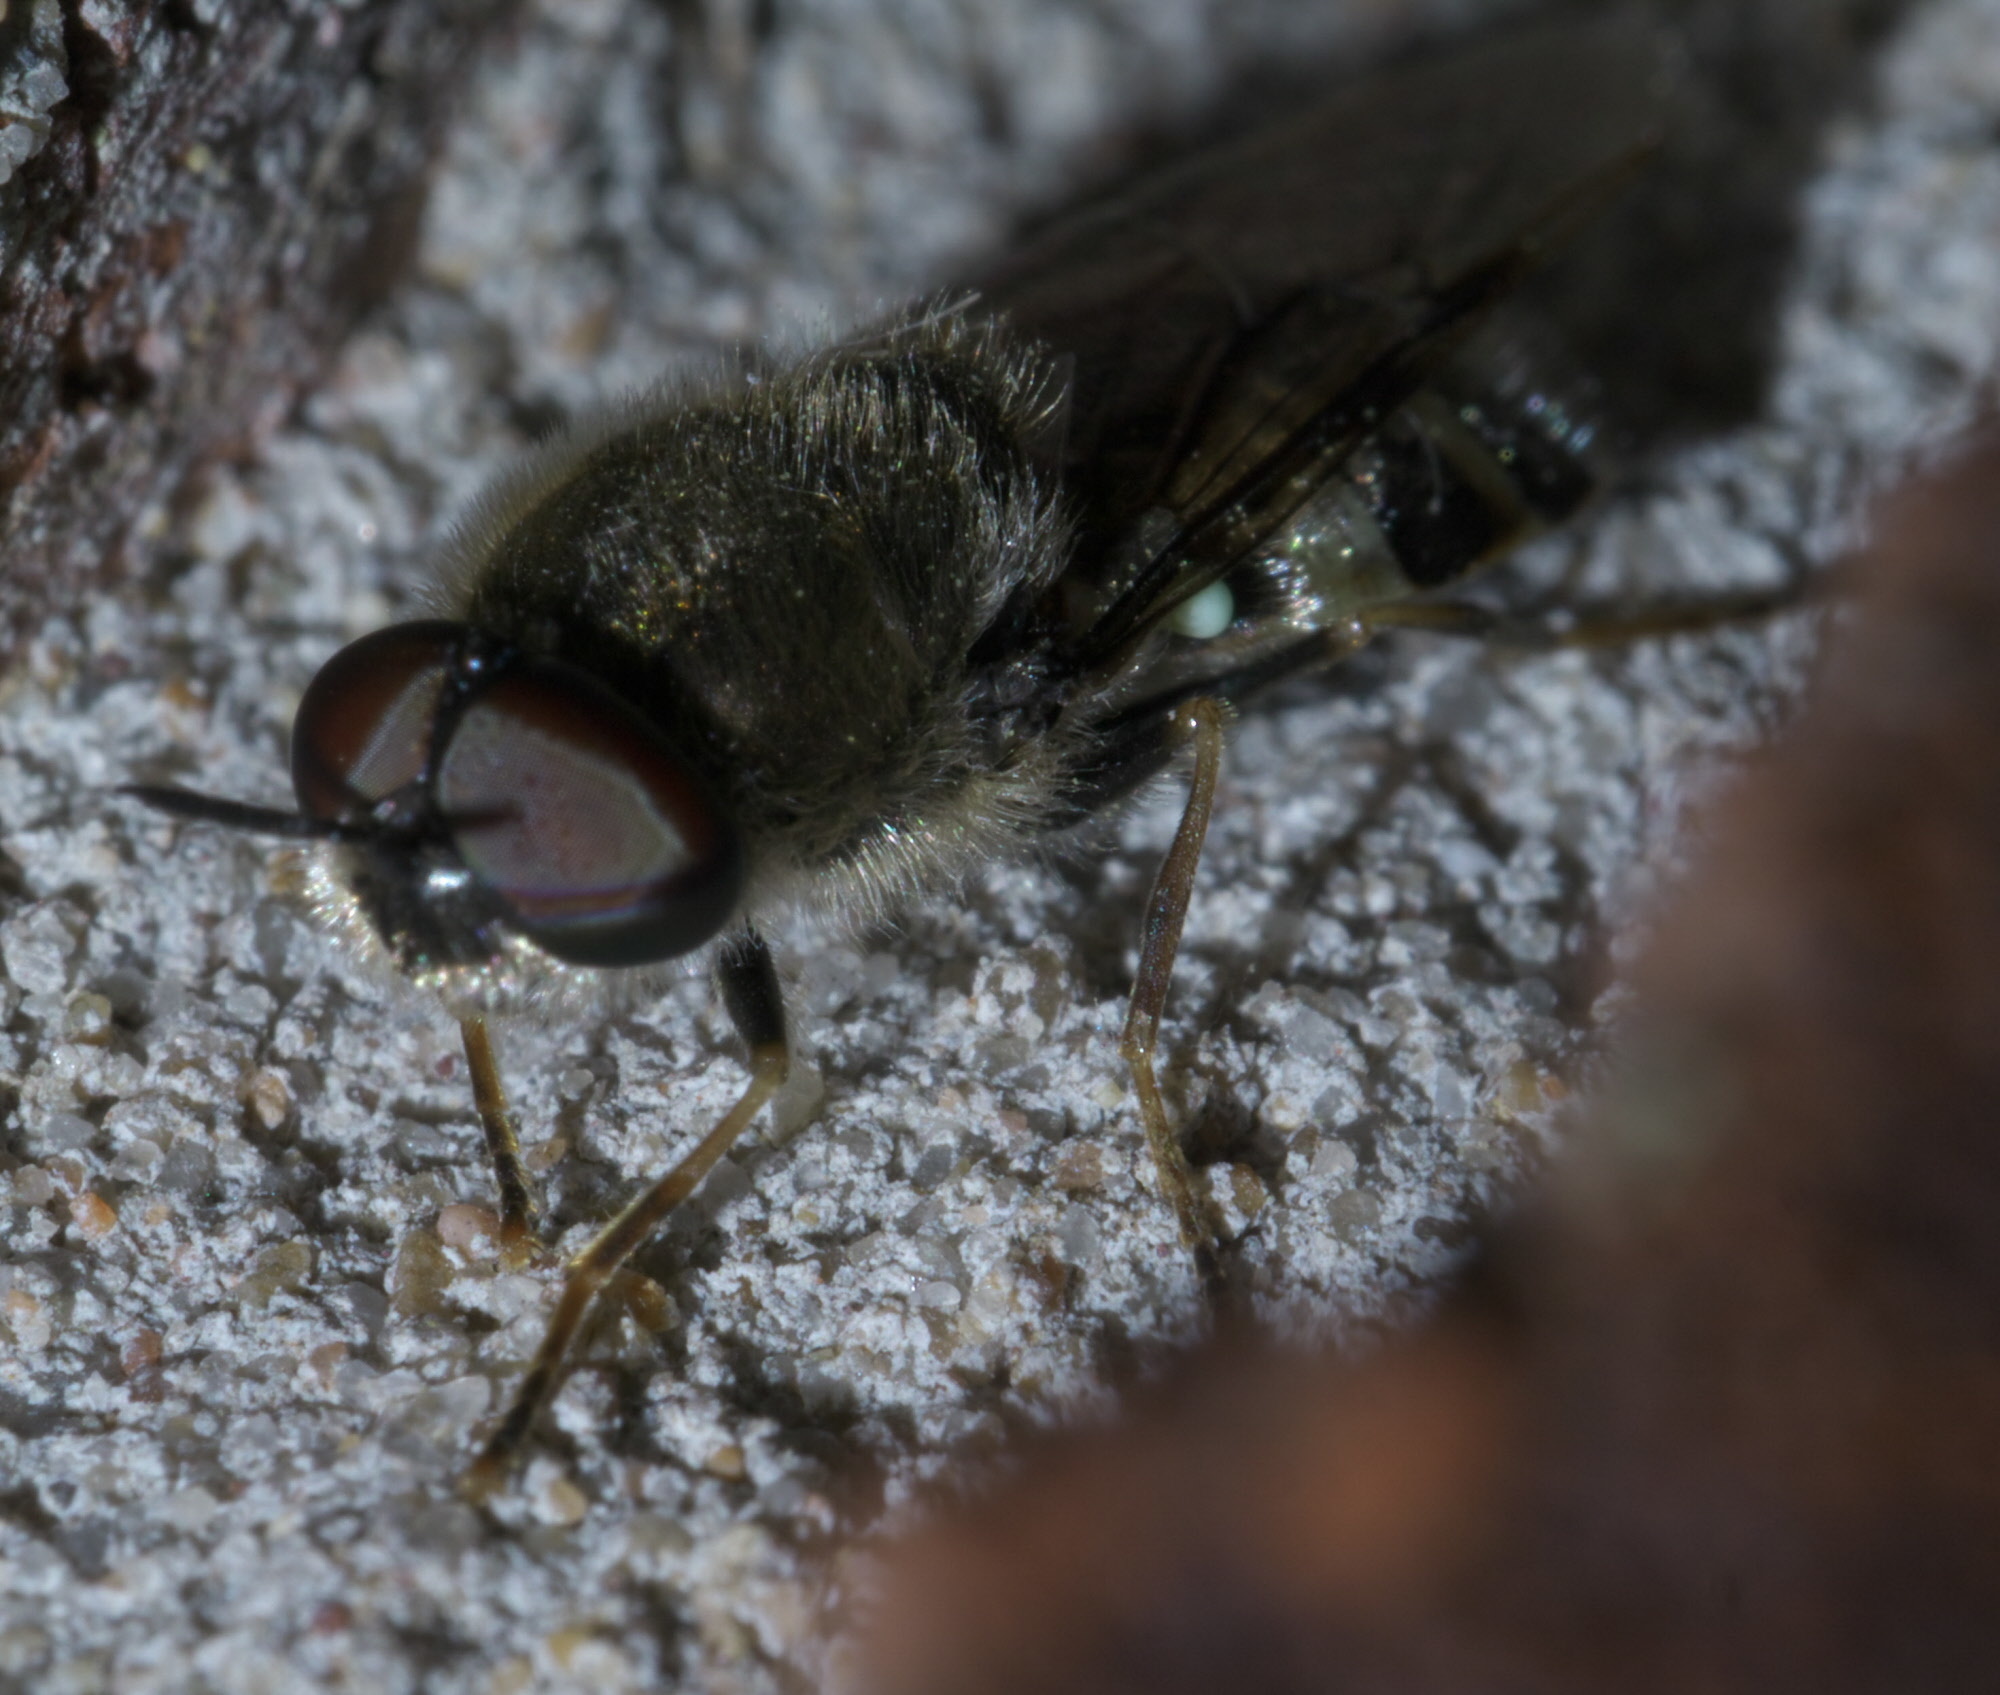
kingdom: Animalia
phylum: Arthropoda
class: Insecta
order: Diptera
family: Stratiomyidae
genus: Odontomyia
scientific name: Odontomyia interrupta
